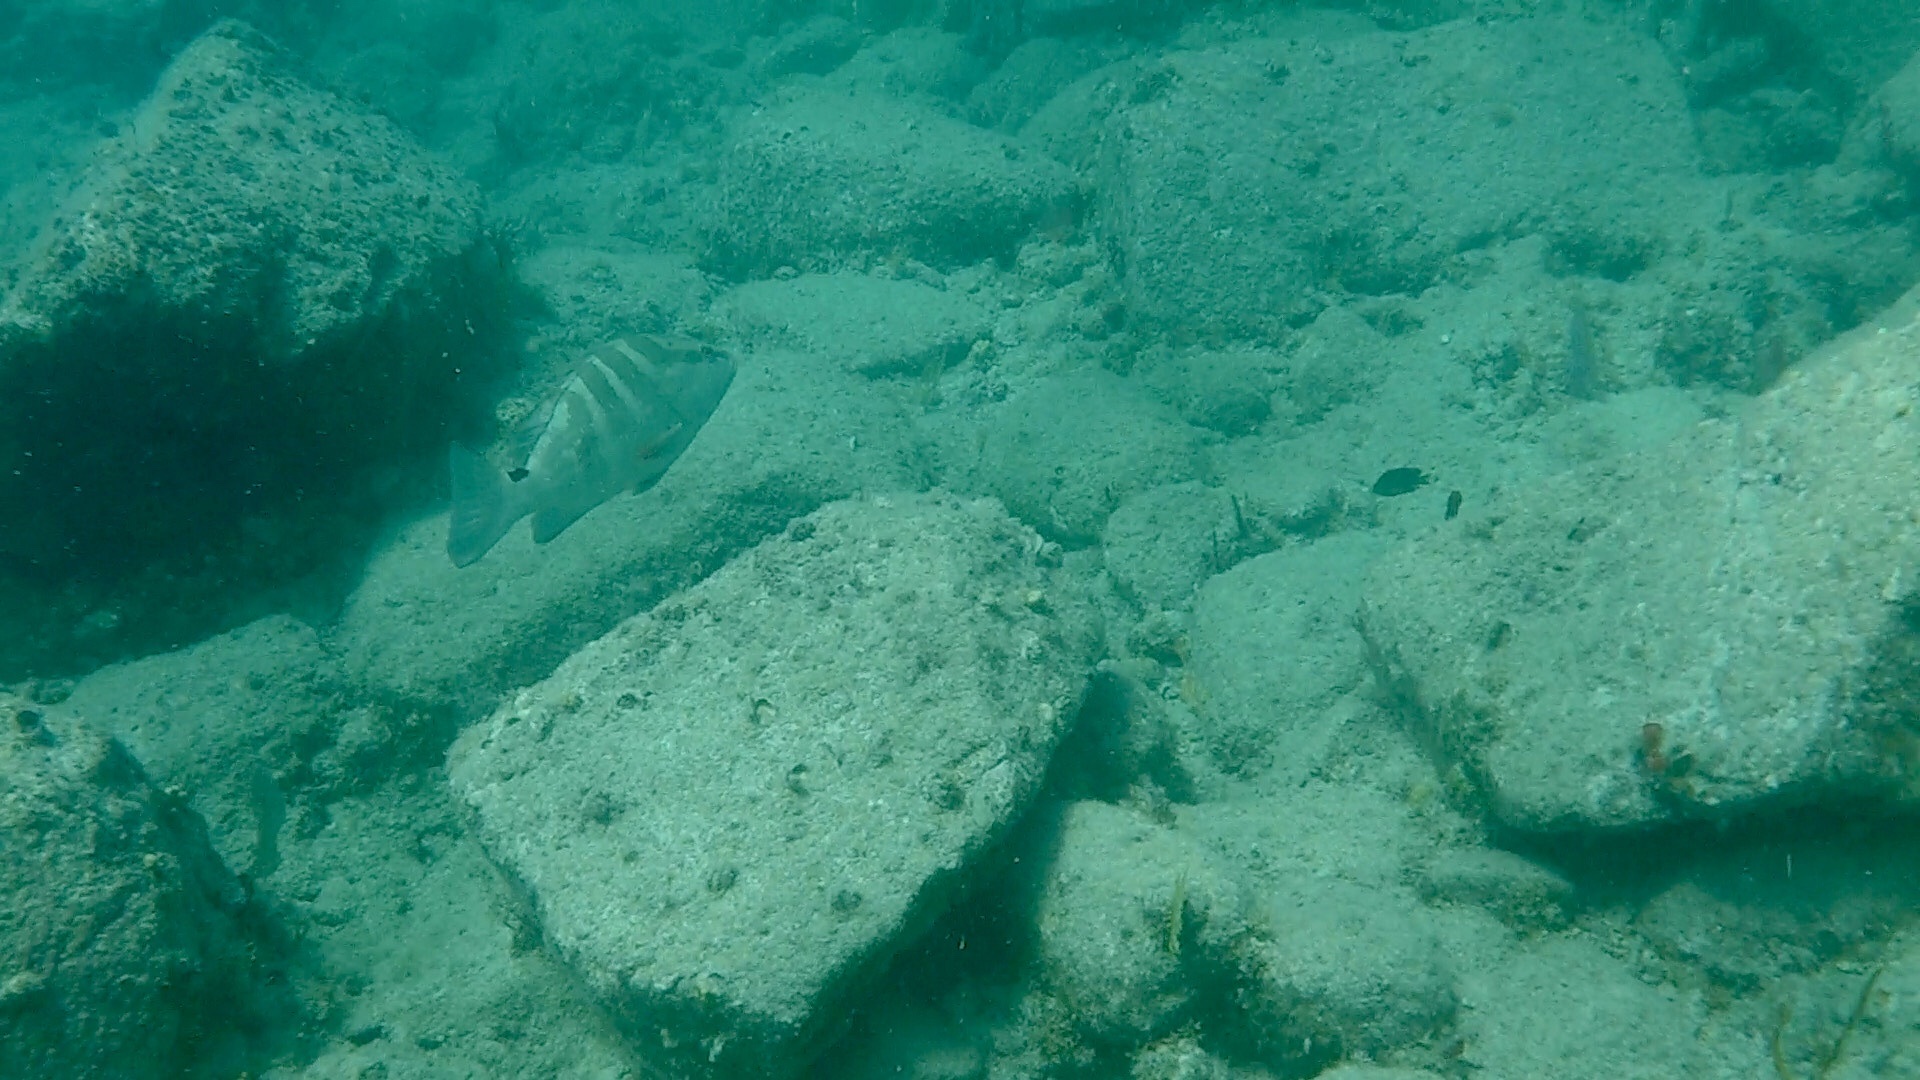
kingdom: Animalia
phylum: Chordata
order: Perciformes
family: Serranidae
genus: Epinephelus
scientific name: Epinephelus striatus
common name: Nassau grouper
